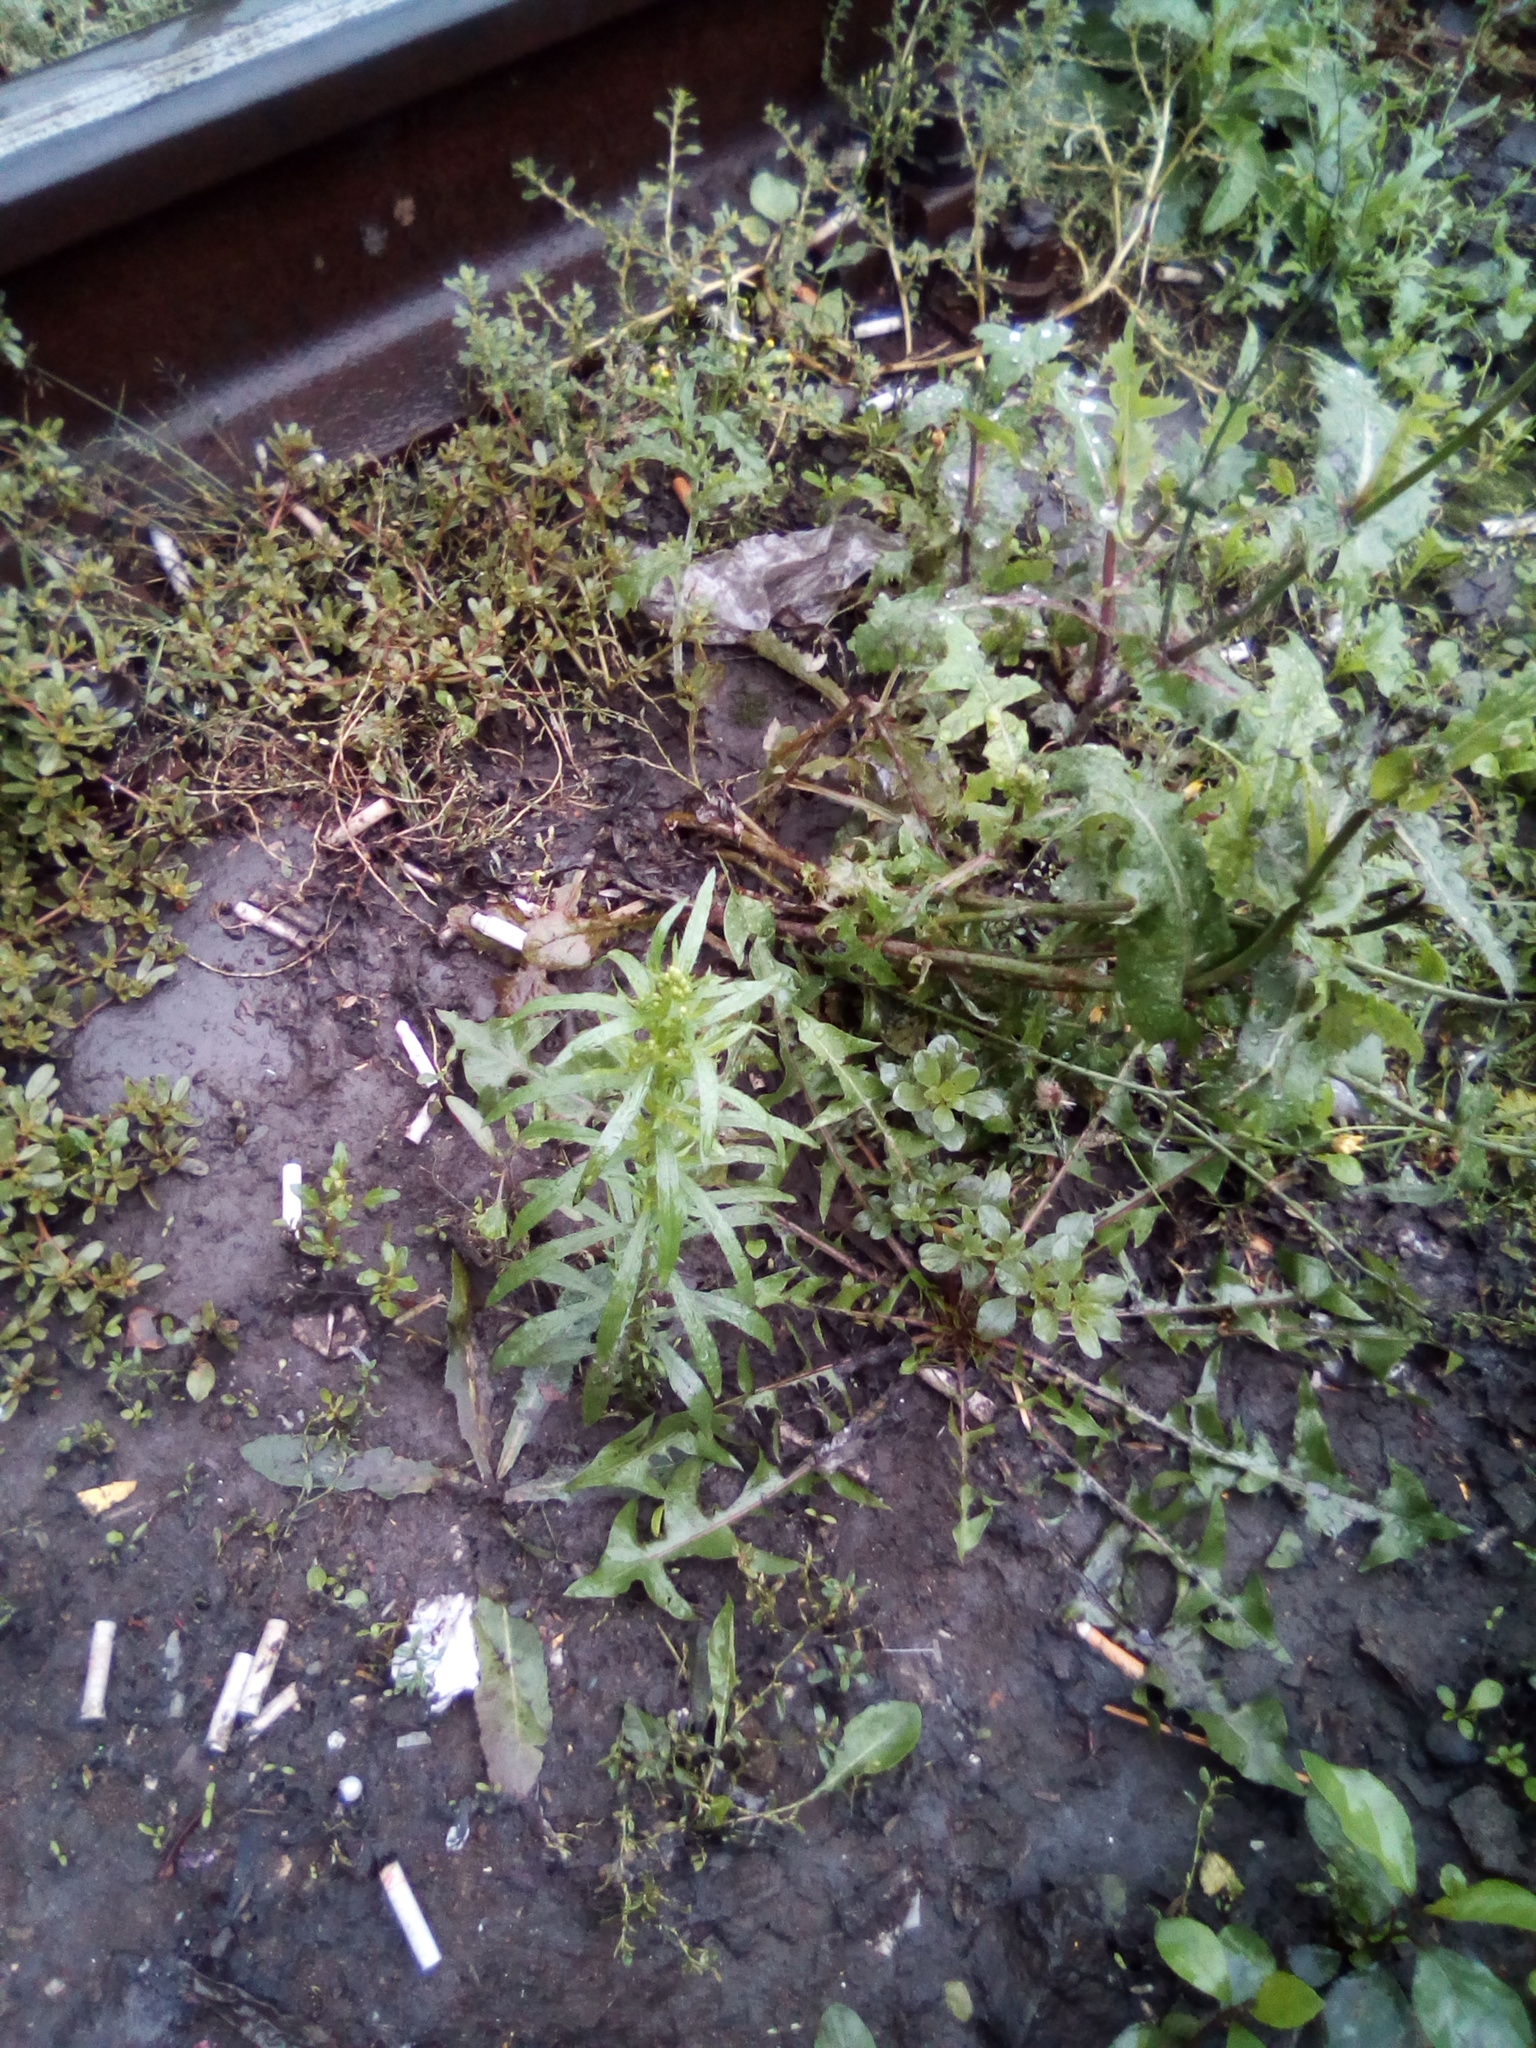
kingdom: Plantae
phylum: Tracheophyta
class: Magnoliopsida
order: Asterales
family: Asteraceae
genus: Erigeron
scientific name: Erigeron canadensis
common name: Canadian fleabane
